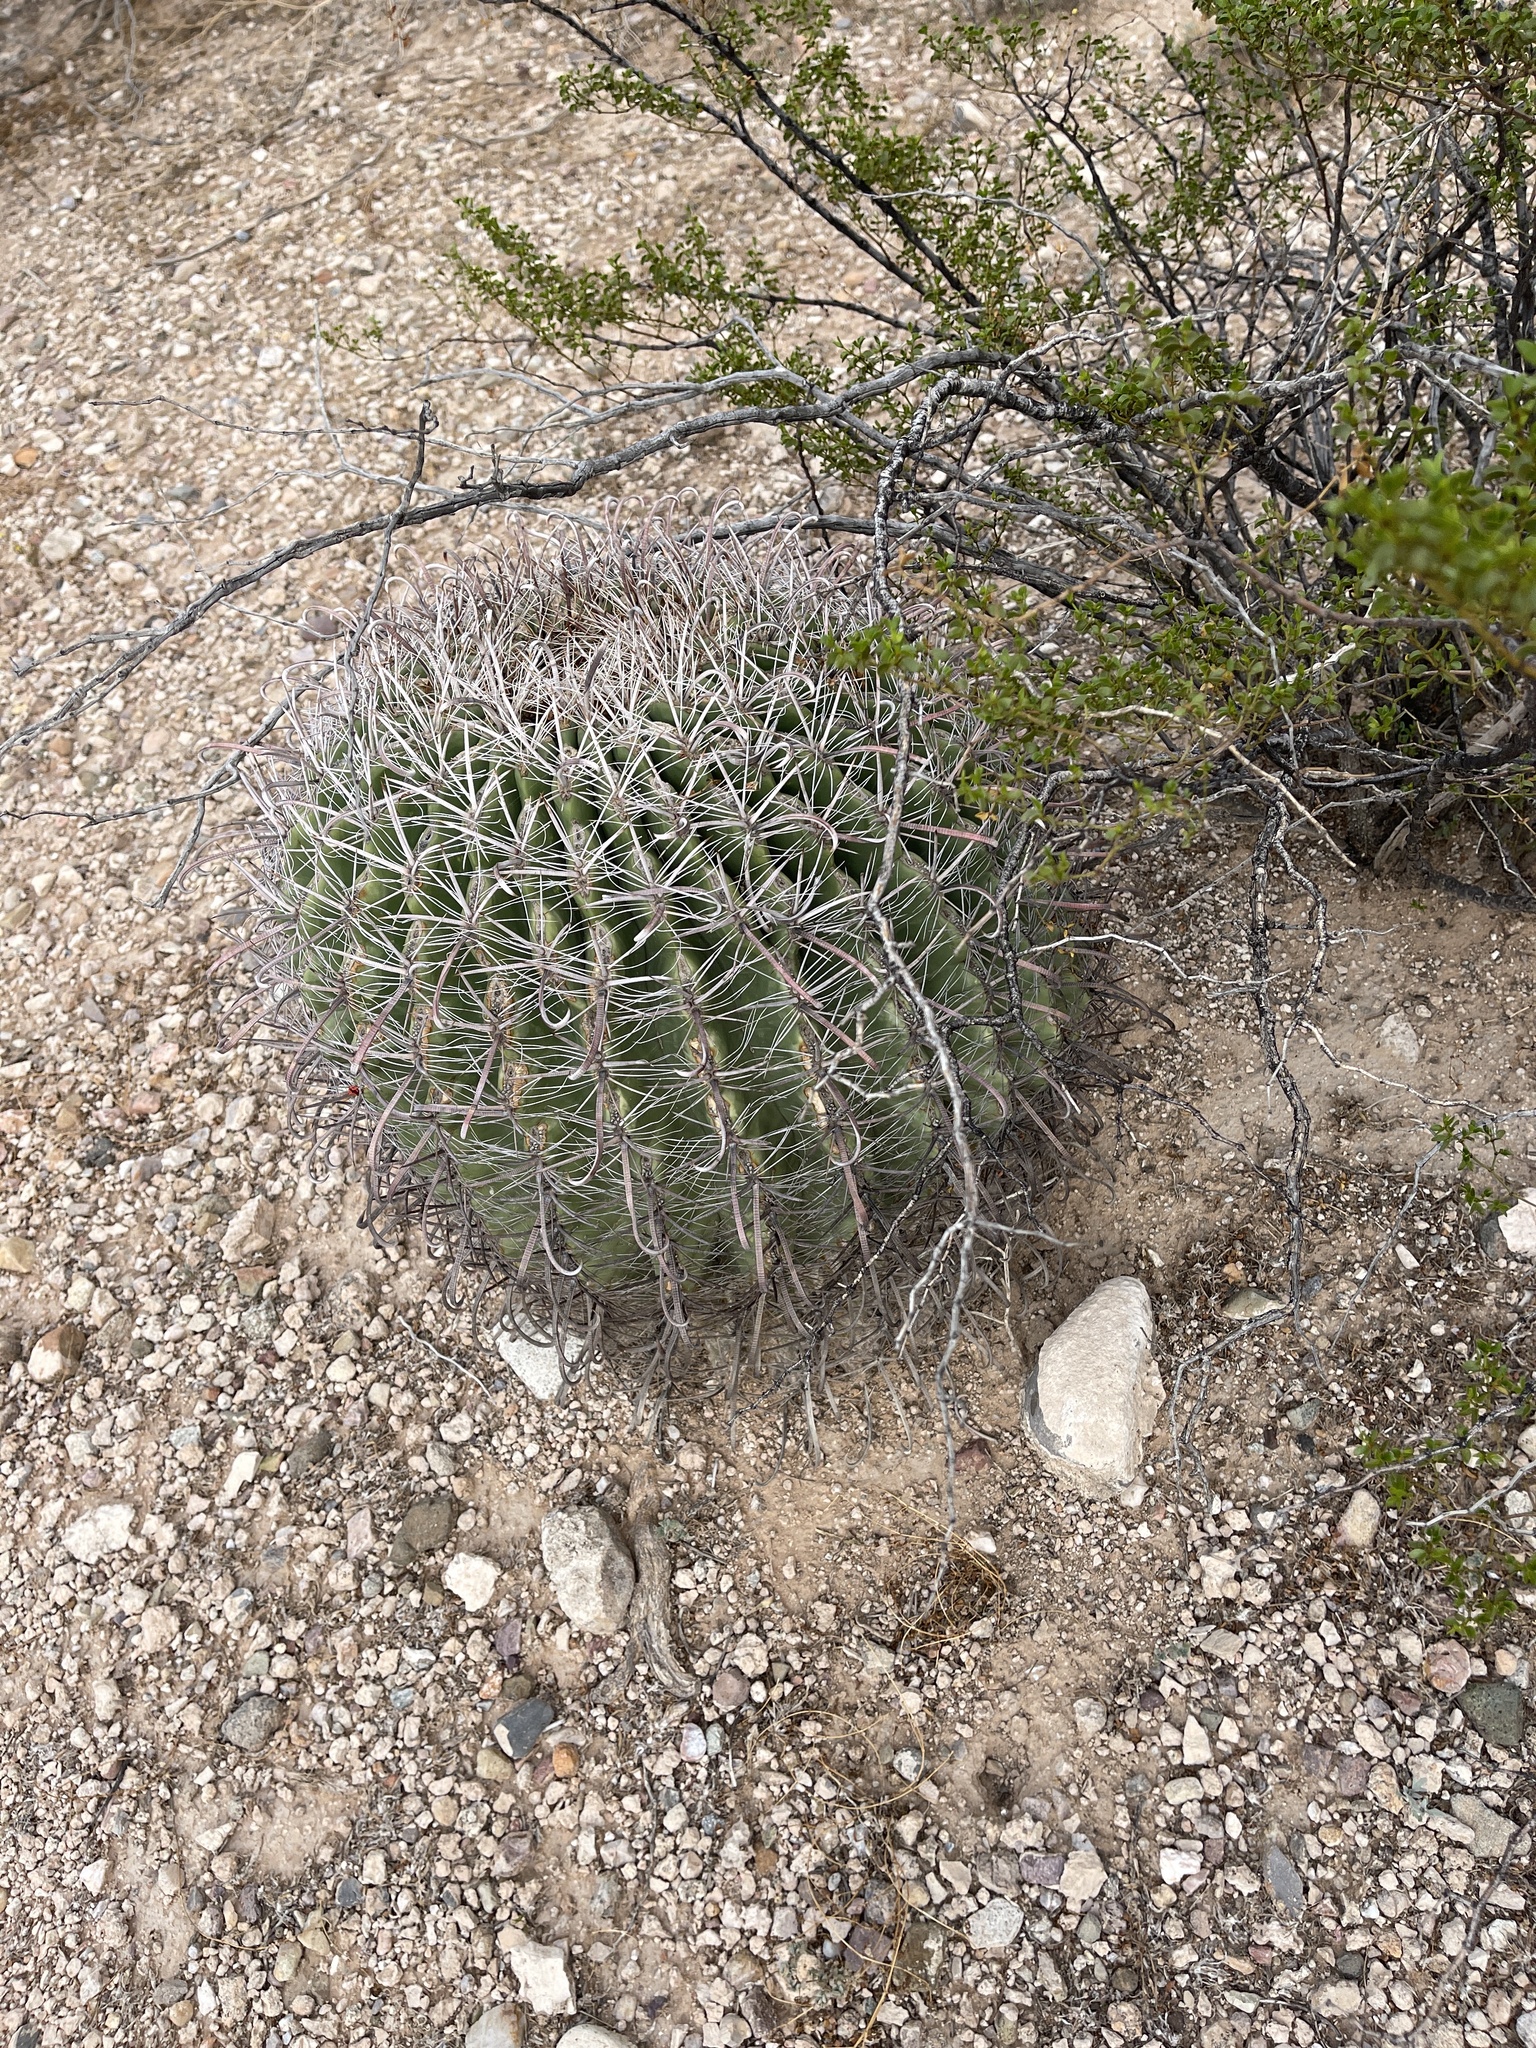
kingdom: Plantae
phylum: Tracheophyta
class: Magnoliopsida
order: Caryophyllales
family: Cactaceae
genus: Ferocactus
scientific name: Ferocactus wislizeni
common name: Candy barrel cactus
